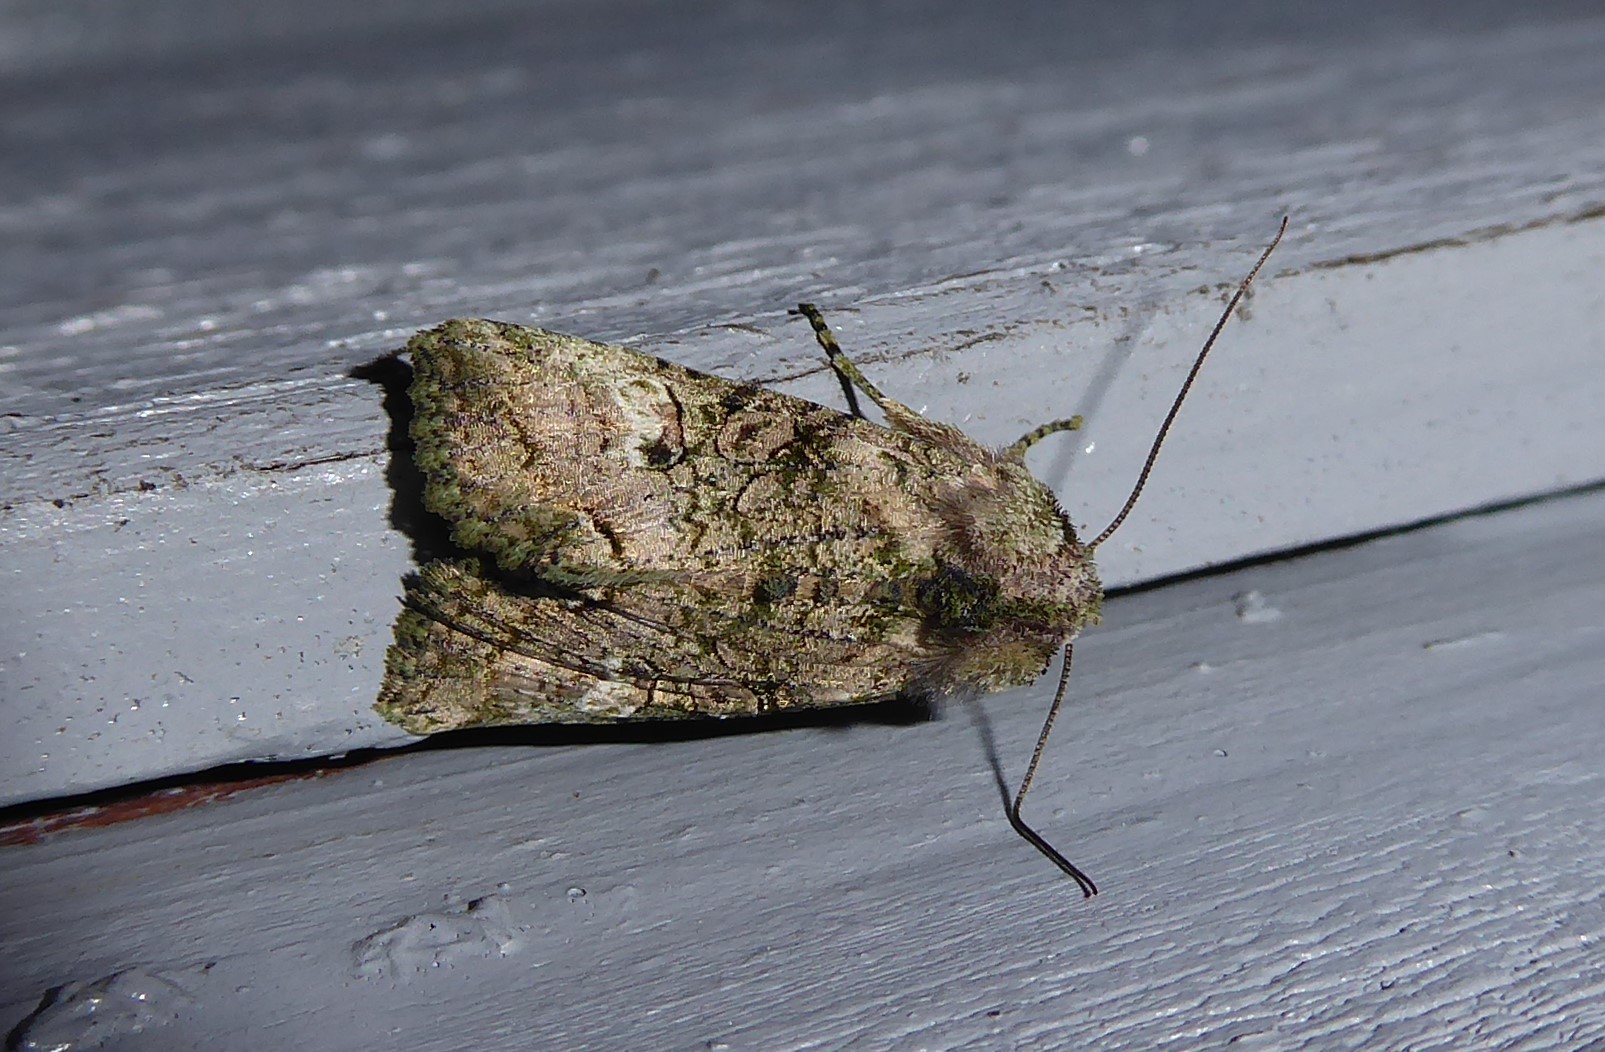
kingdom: Animalia
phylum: Arthropoda
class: Insecta
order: Lepidoptera
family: Noctuidae
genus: Meterana
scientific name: Meterana levis
